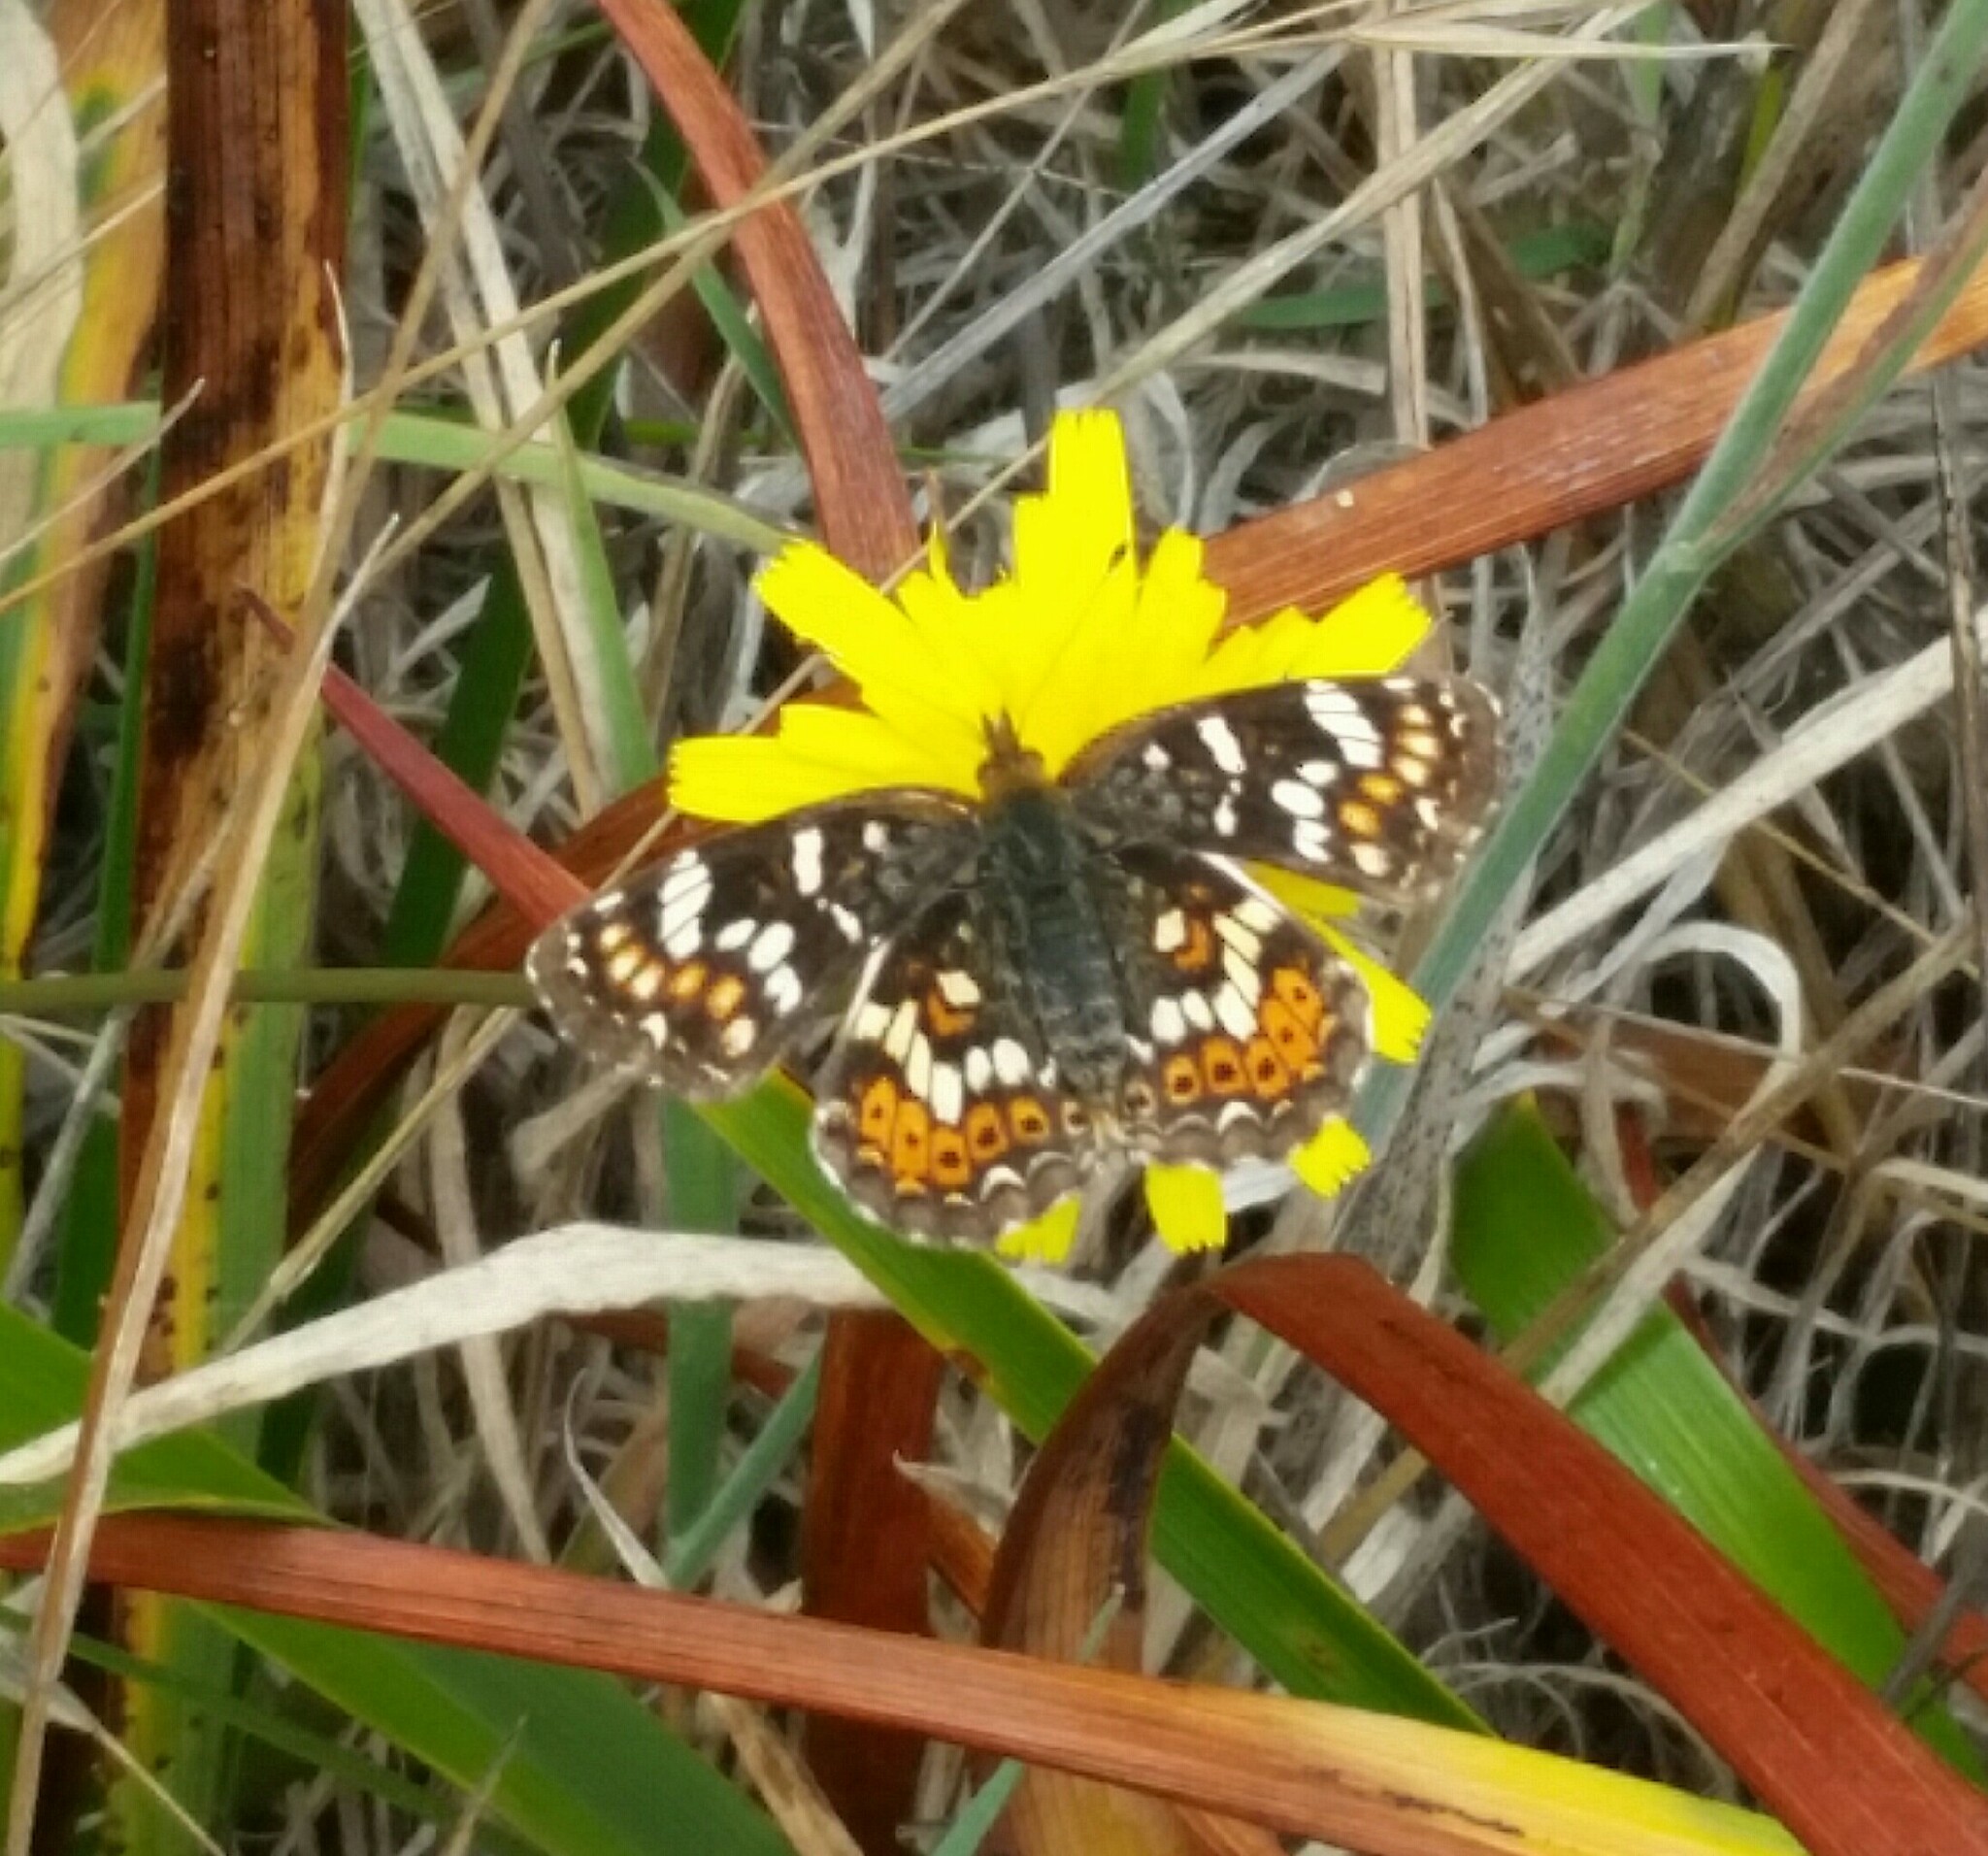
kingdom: Animalia
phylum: Arthropoda
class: Insecta
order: Lepidoptera
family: Nymphalidae
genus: Phyciodes
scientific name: Phyciodes tharos
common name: Pearl crescent
